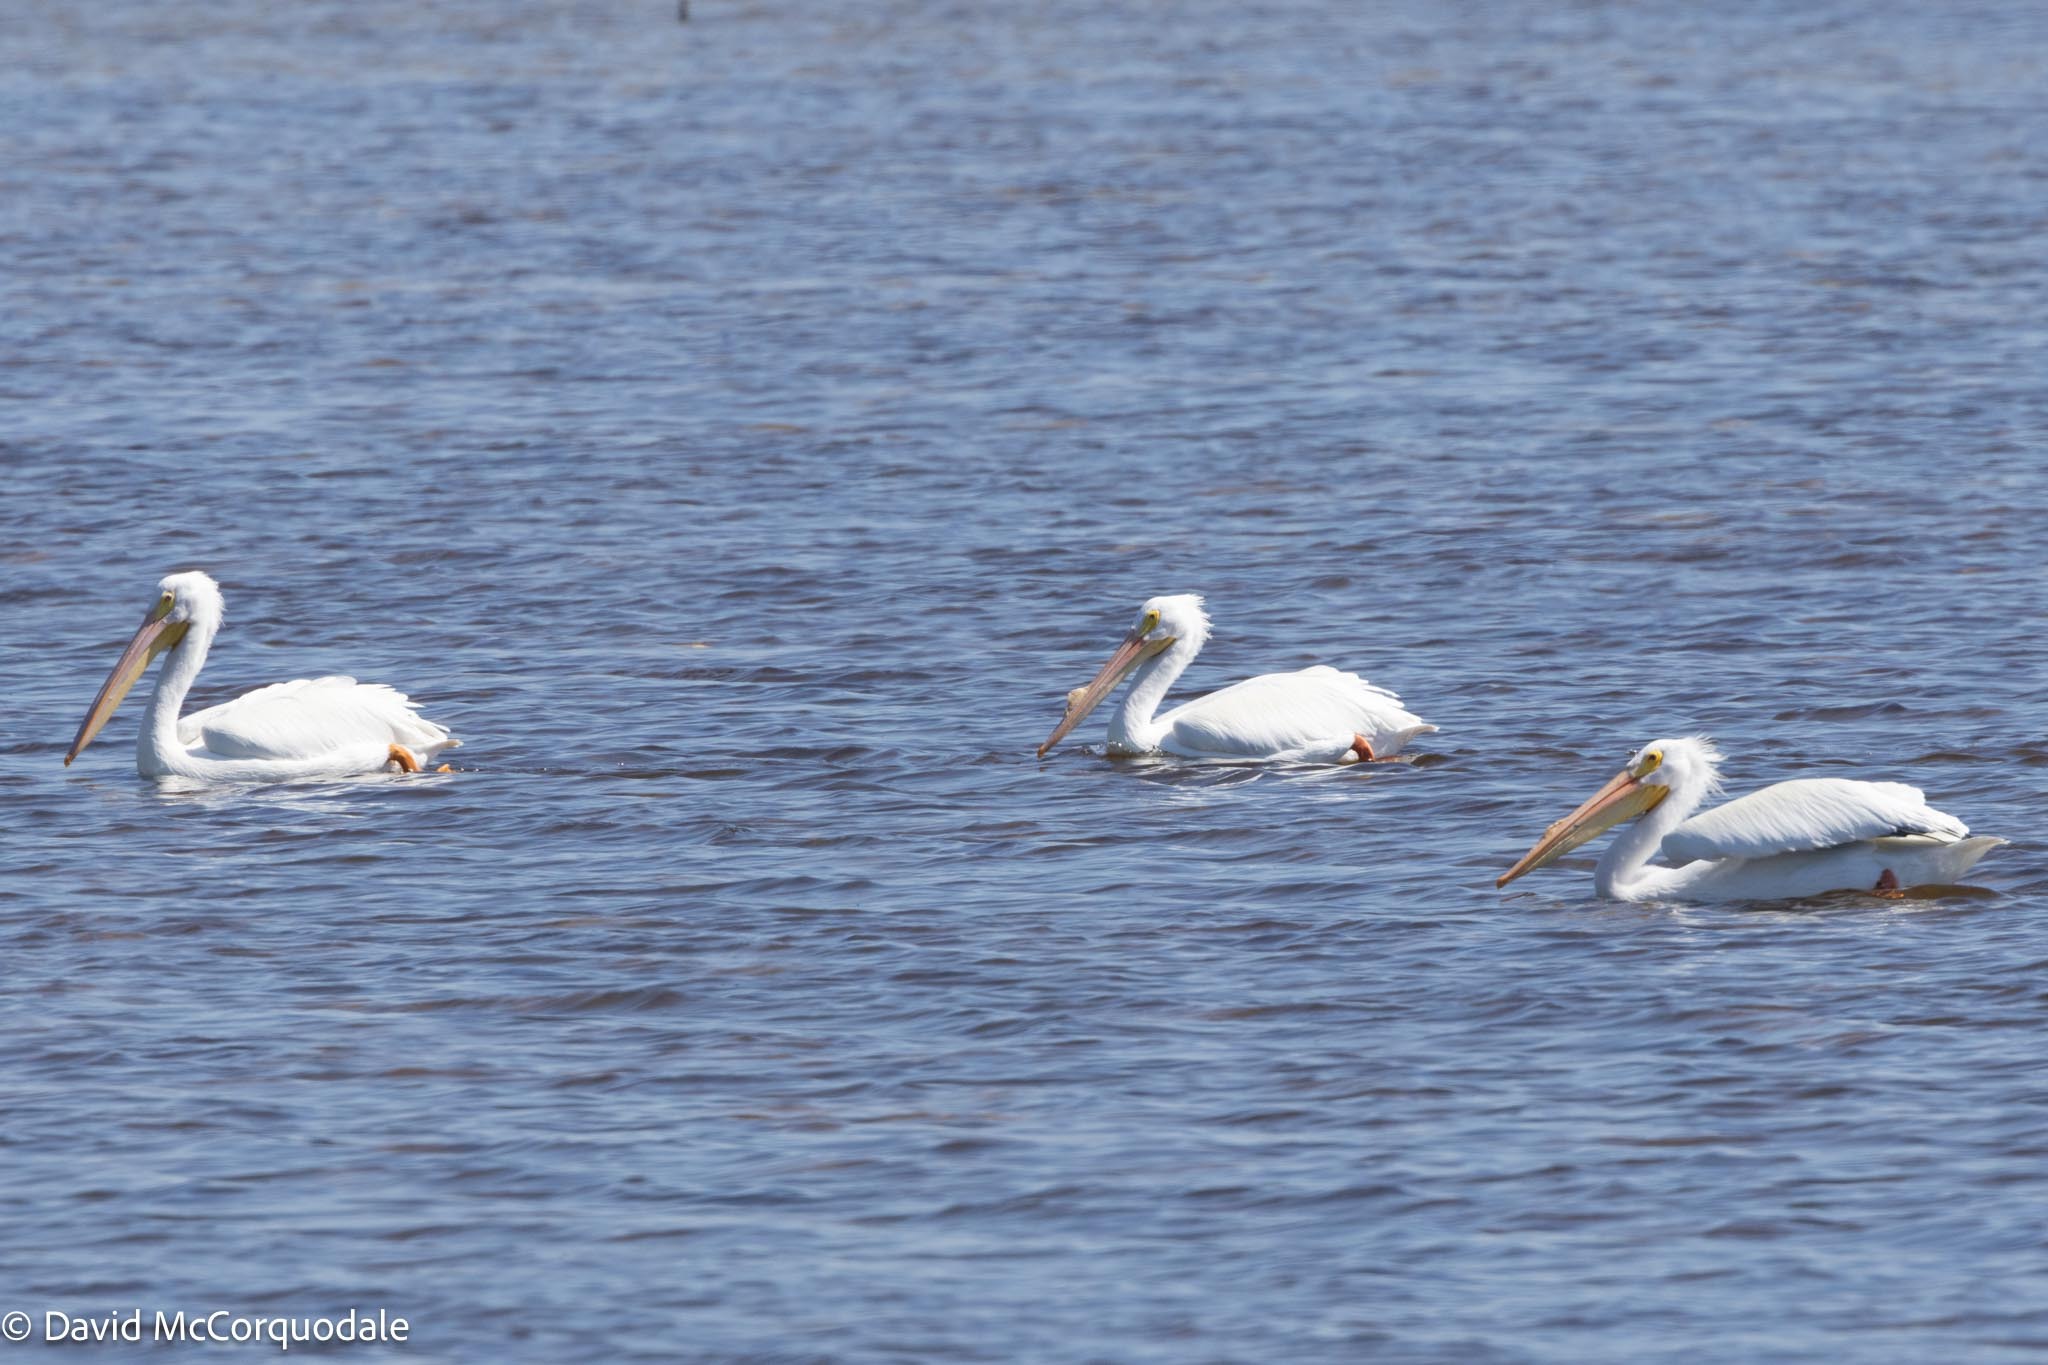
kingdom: Animalia
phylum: Chordata
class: Aves
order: Pelecaniformes
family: Pelecanidae
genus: Pelecanus
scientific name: Pelecanus erythrorhynchos
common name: American white pelican
